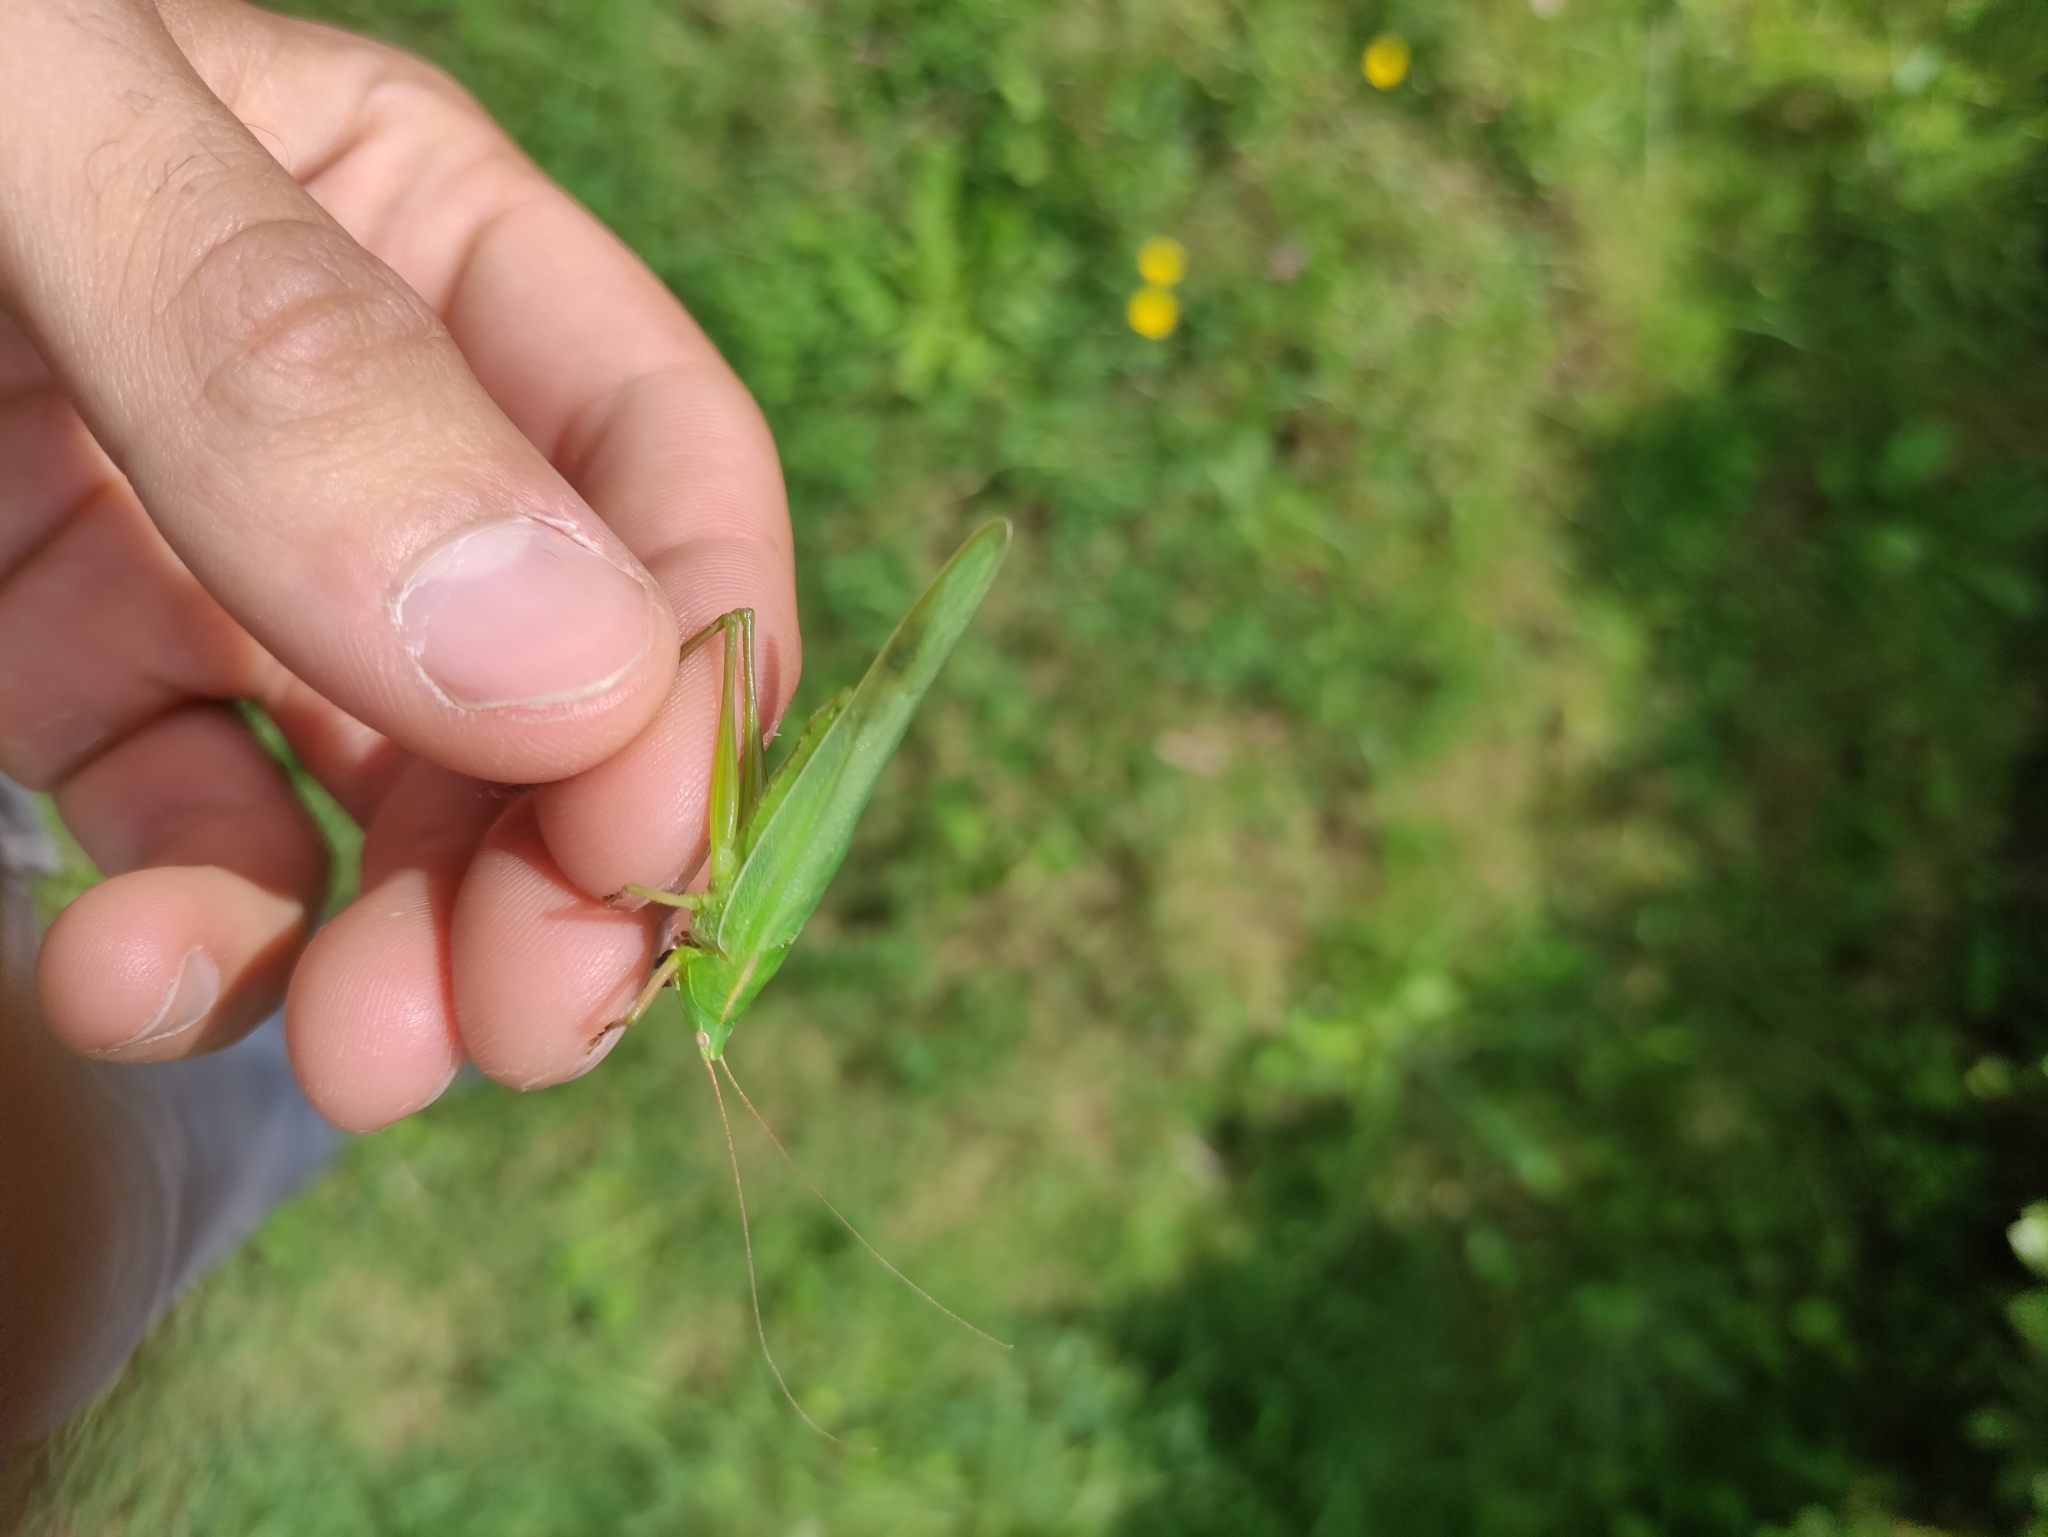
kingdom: Animalia
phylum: Arthropoda
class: Insecta
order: Orthoptera
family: Tettigoniidae
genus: Ruspolia
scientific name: Ruspolia nitidula
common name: Large conehead
